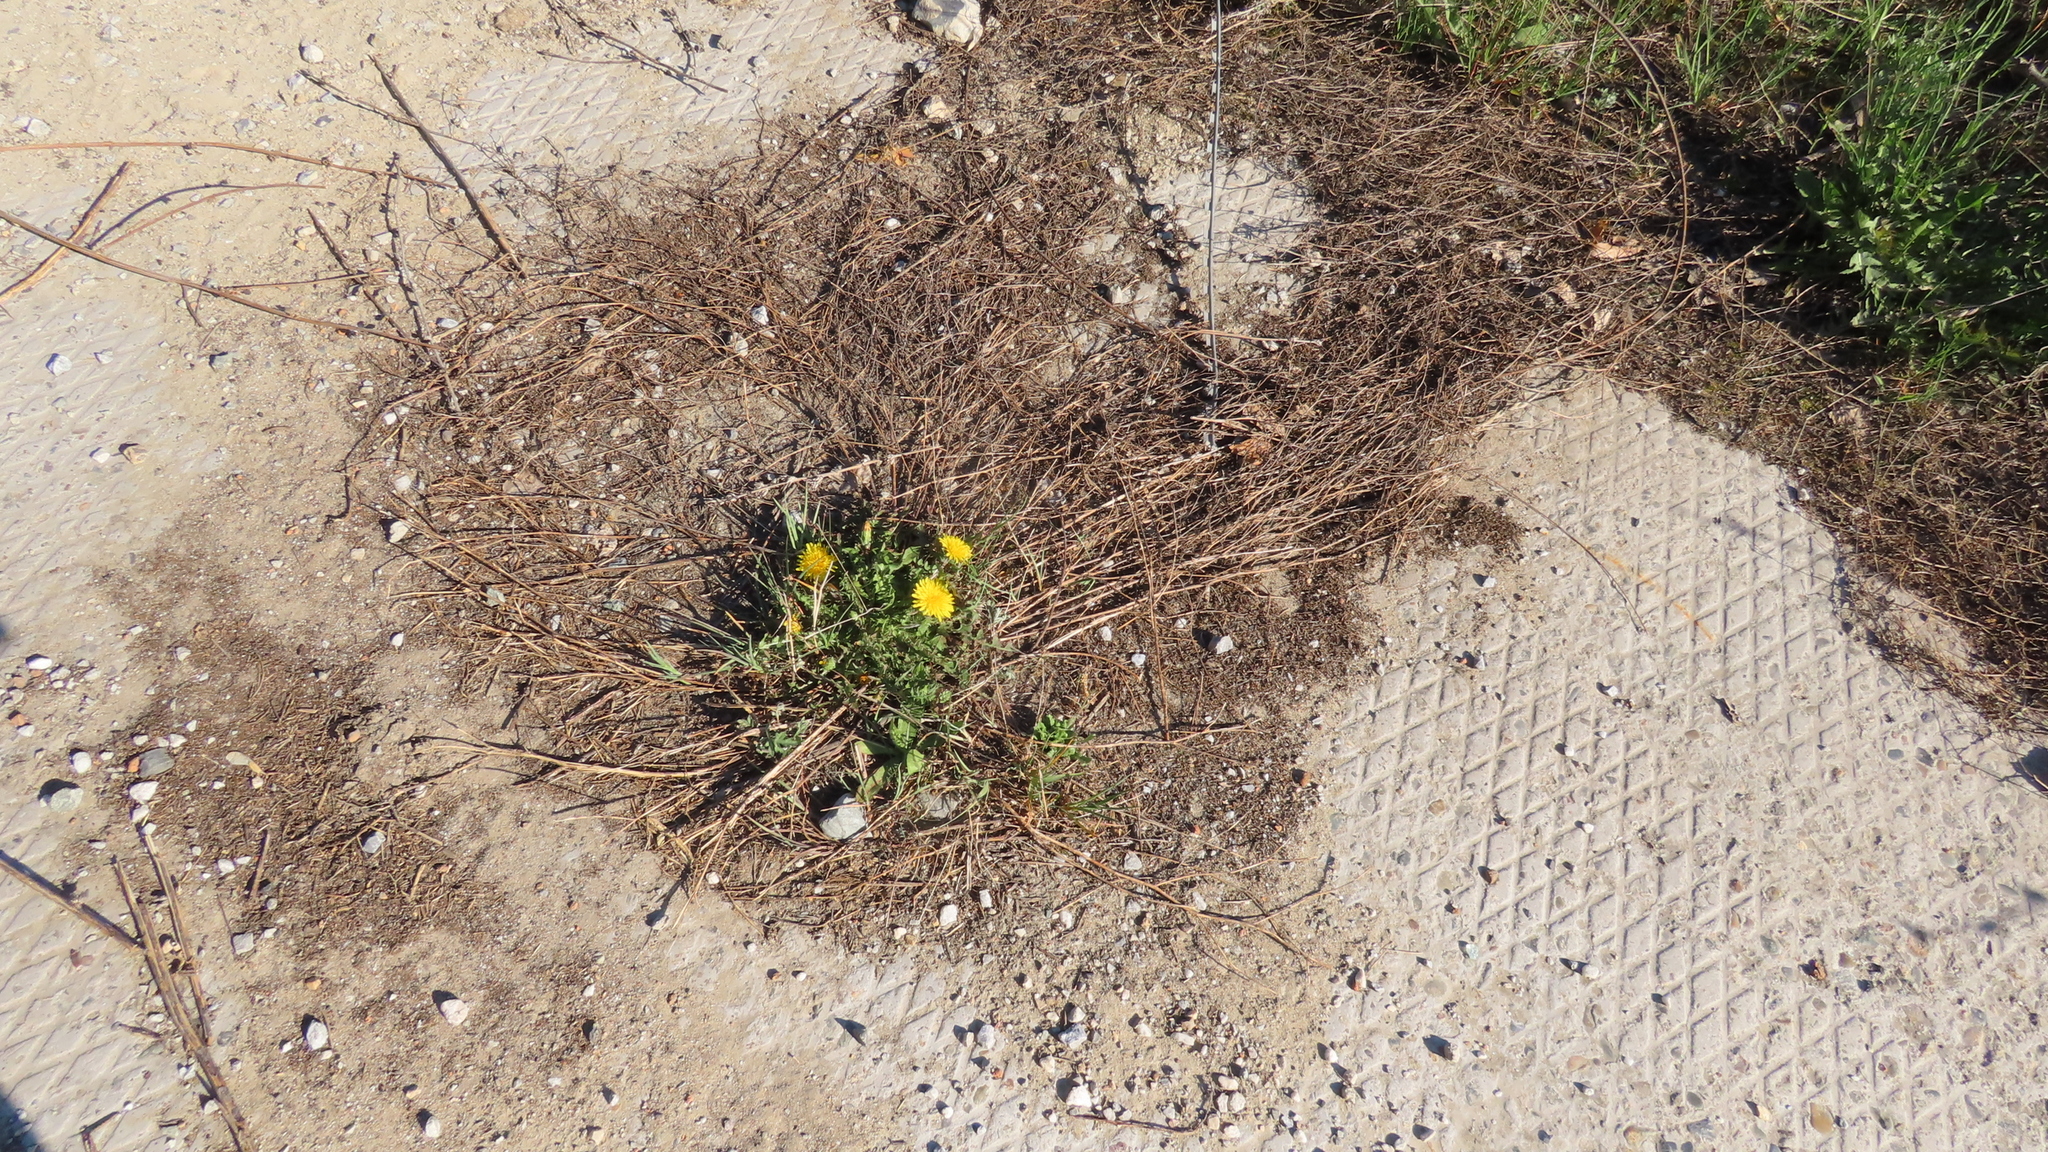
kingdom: Plantae
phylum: Tracheophyta
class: Magnoliopsida
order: Asterales
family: Asteraceae
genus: Taraxacum
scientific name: Taraxacum officinale
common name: Common dandelion
